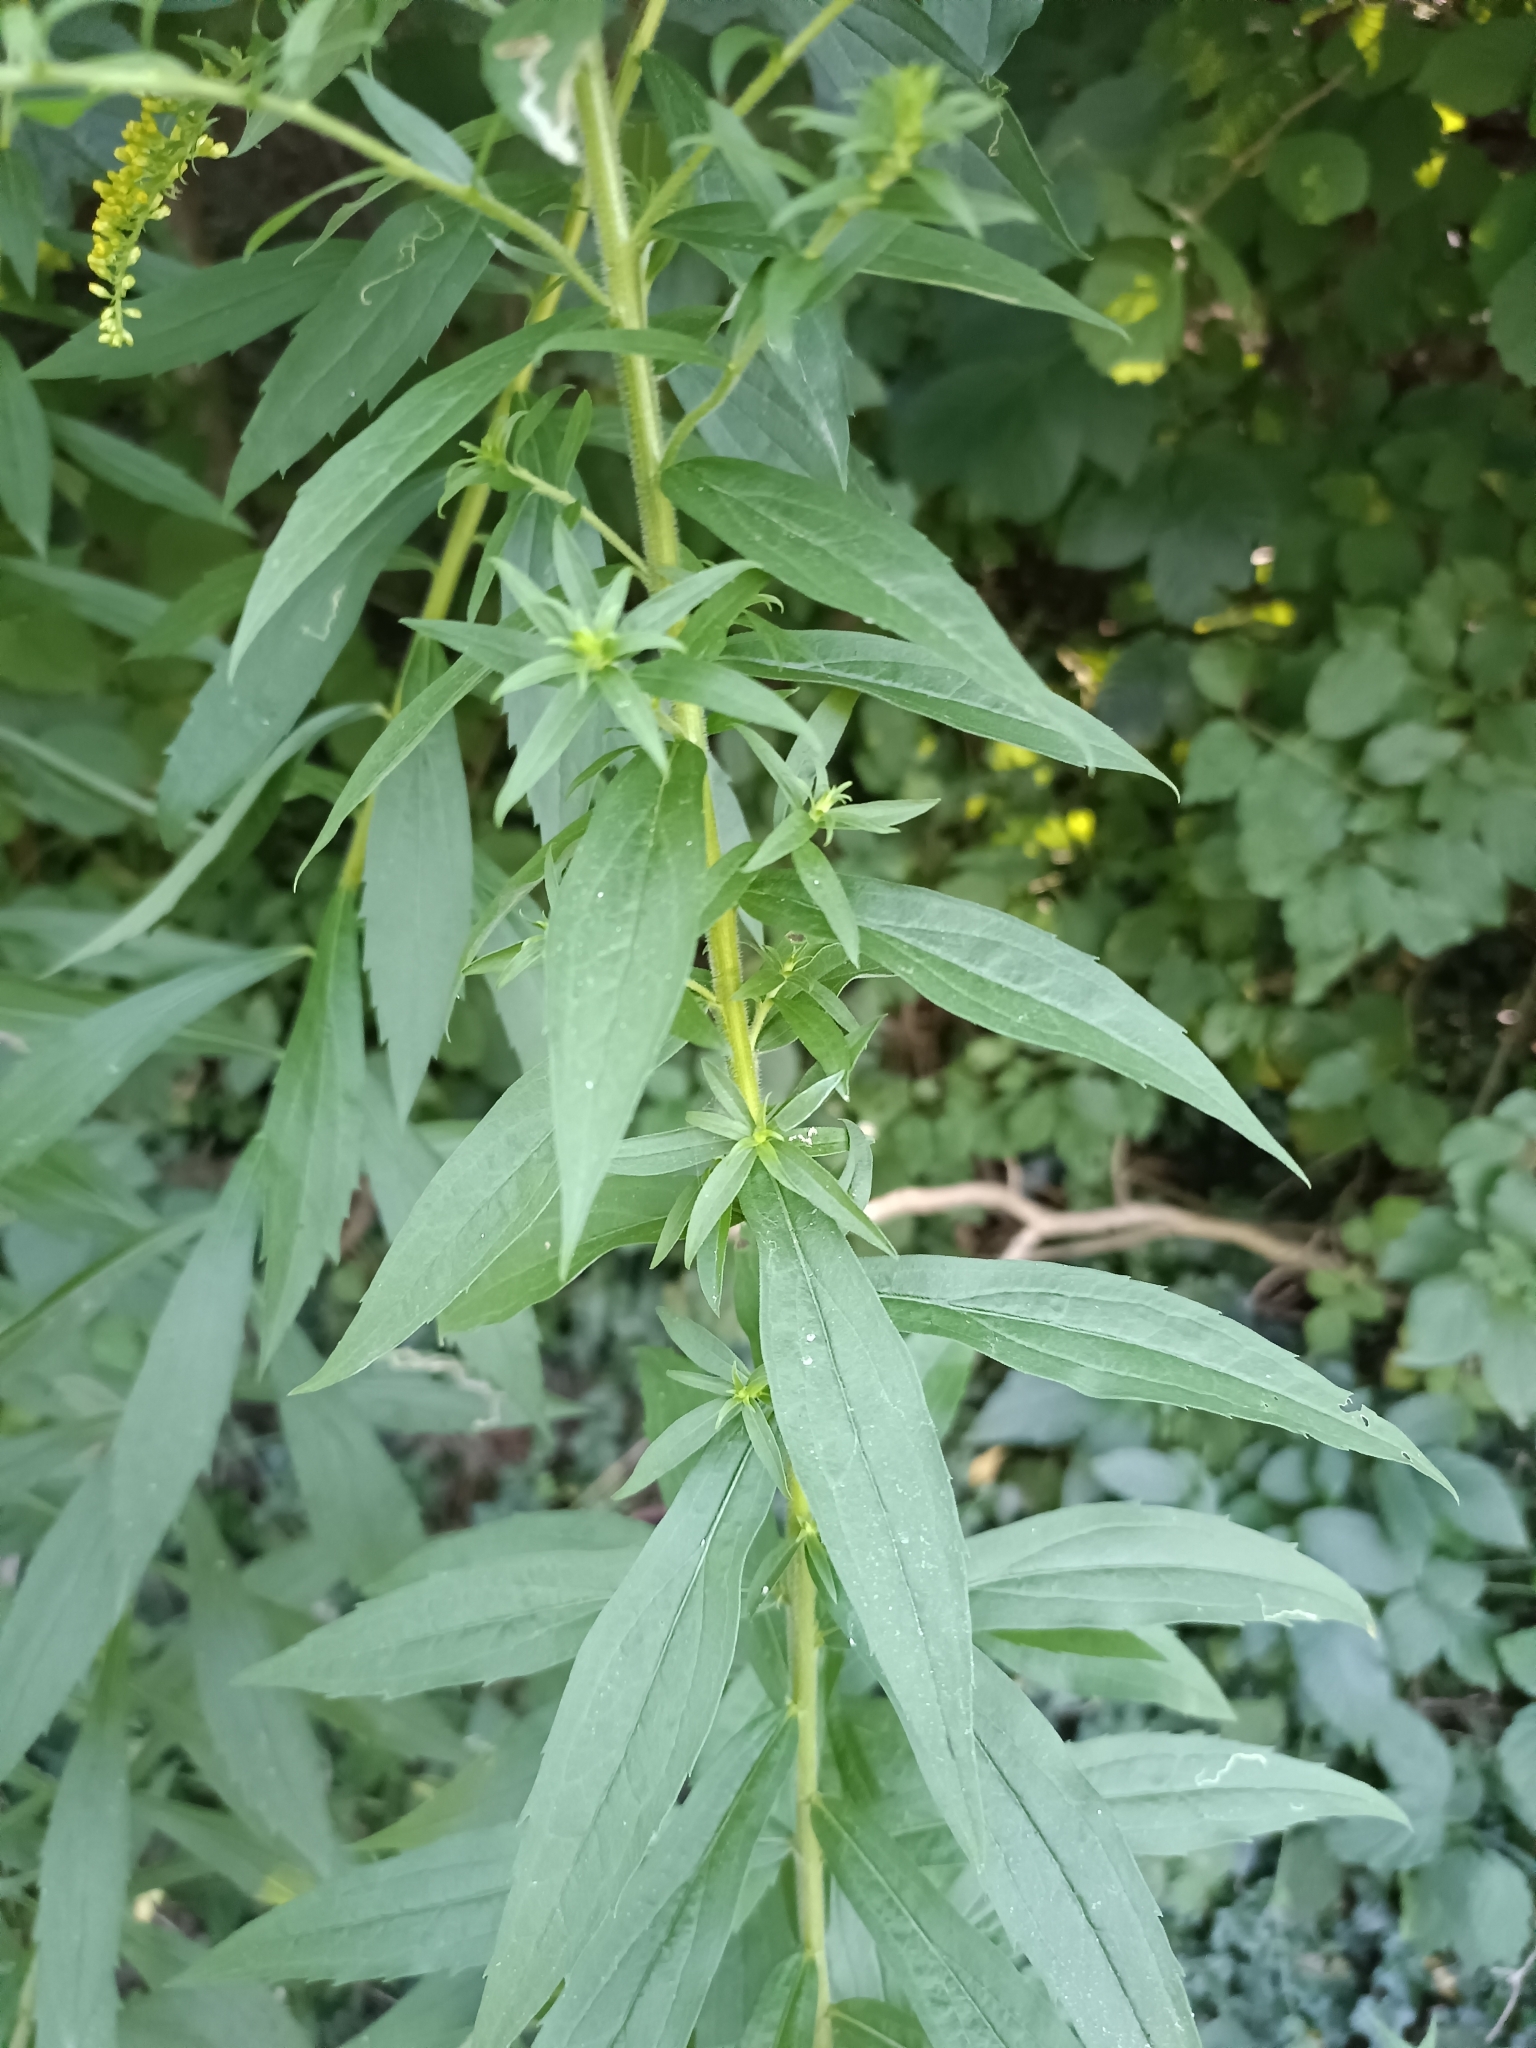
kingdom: Plantae
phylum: Tracheophyta
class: Magnoliopsida
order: Asterales
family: Asteraceae
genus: Solidago
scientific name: Solidago canadensis
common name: Canada goldenrod
